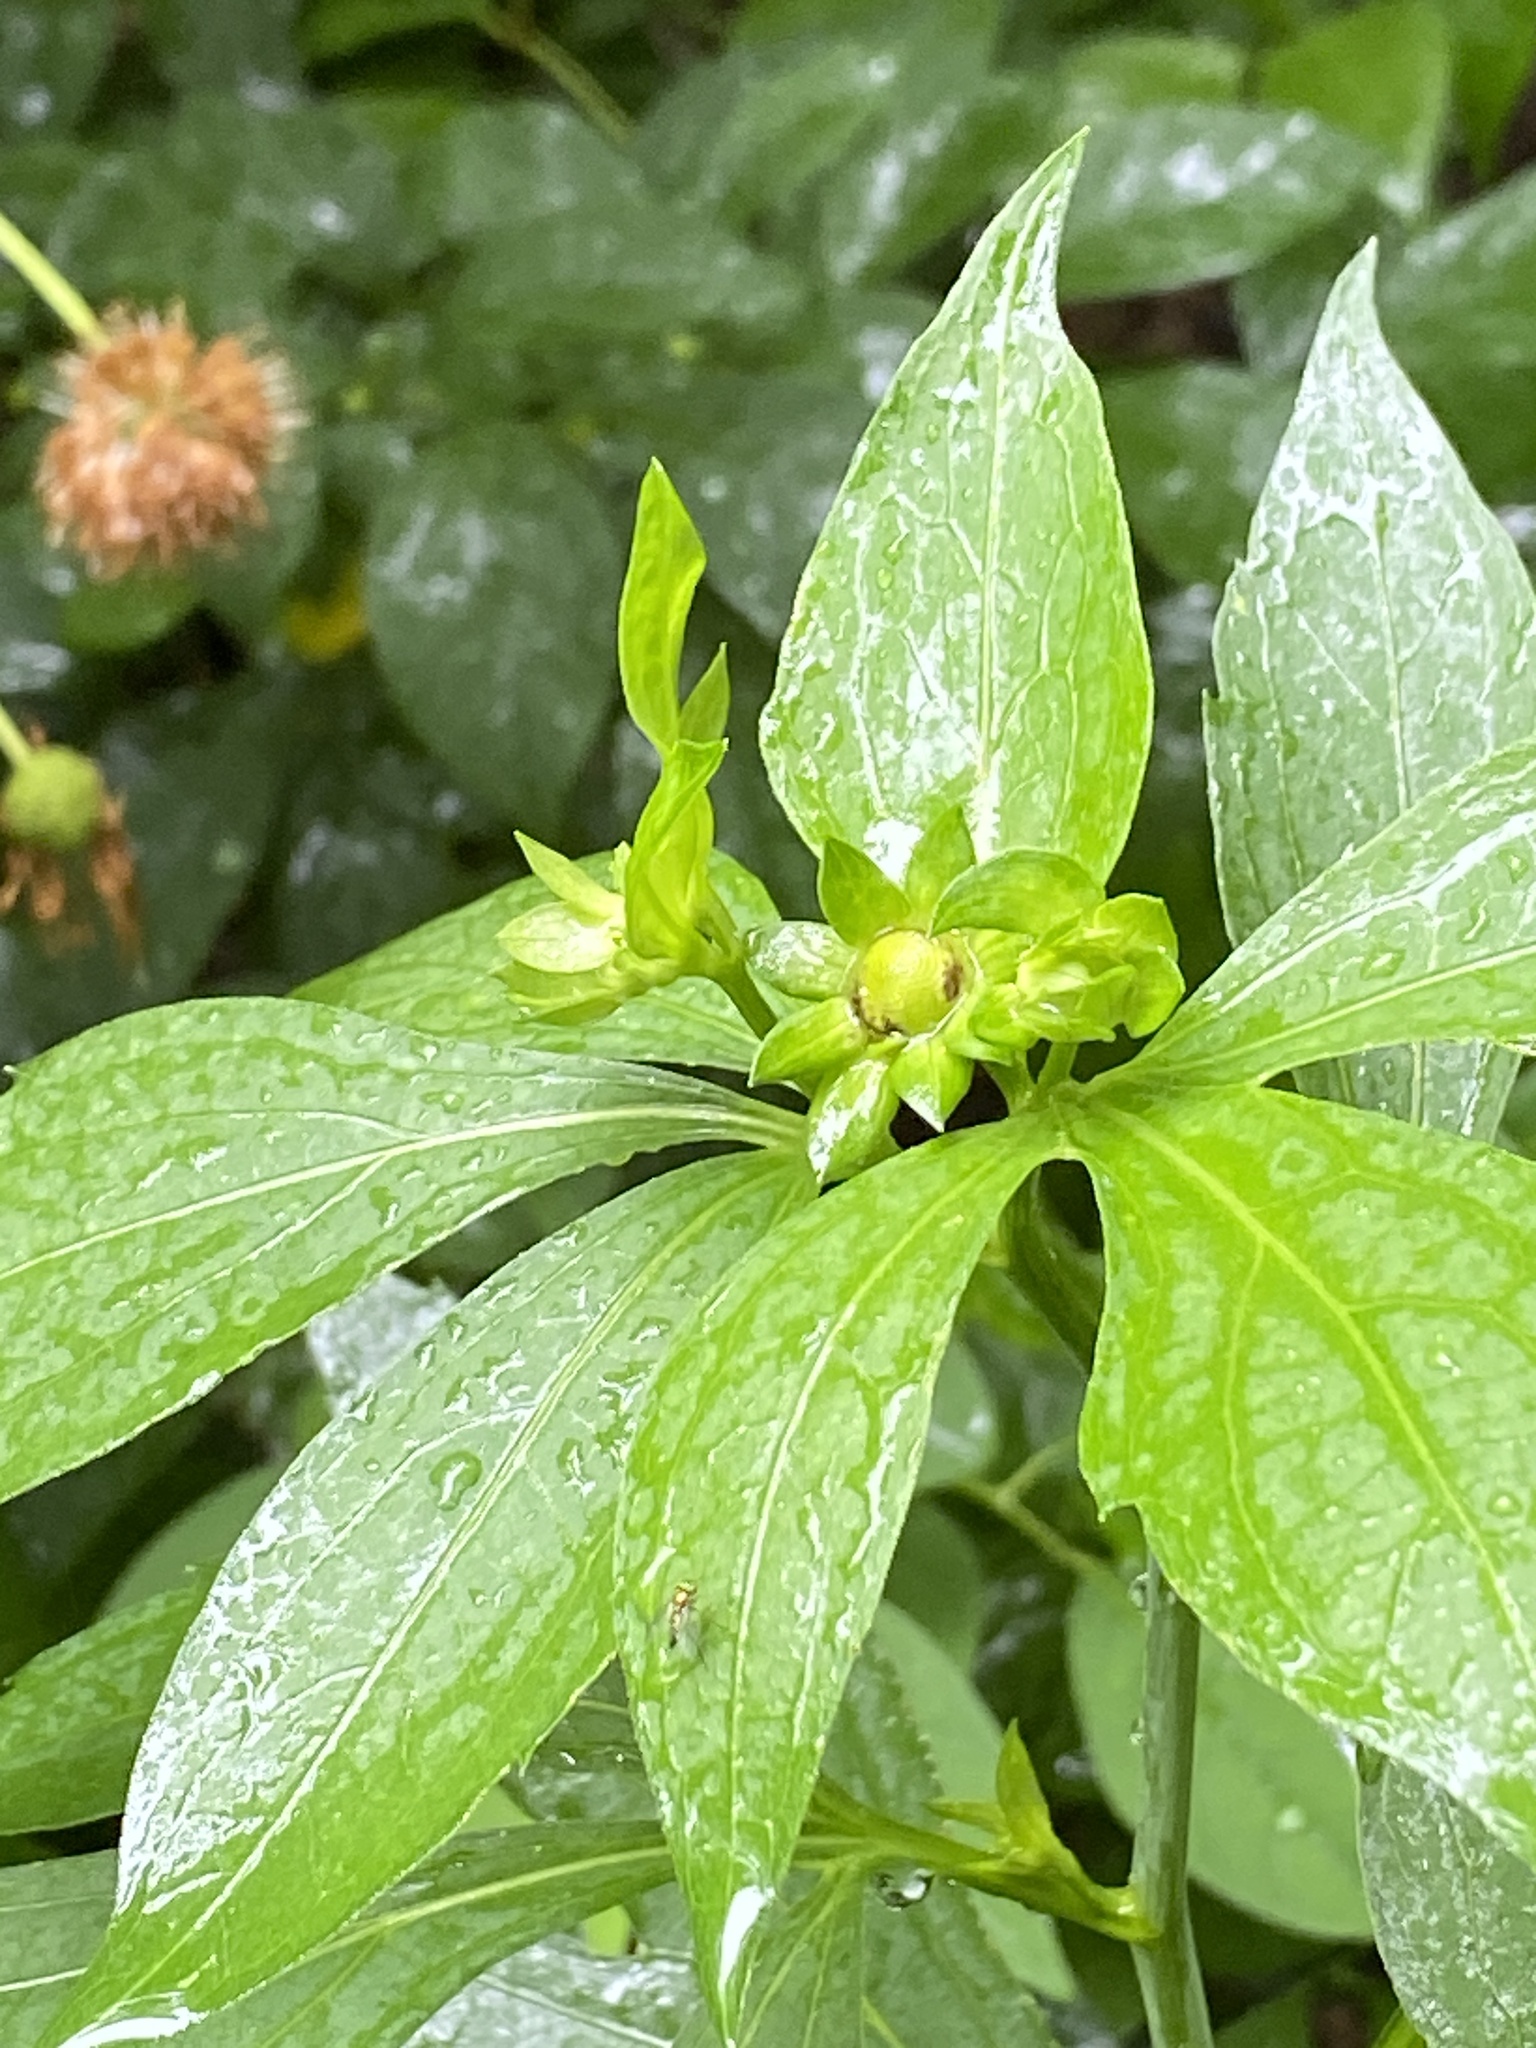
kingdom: Plantae
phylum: Tracheophyta
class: Magnoliopsida
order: Asterales
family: Asteraceae
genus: Rudbeckia
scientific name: Rudbeckia laciniata
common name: Coneflower
